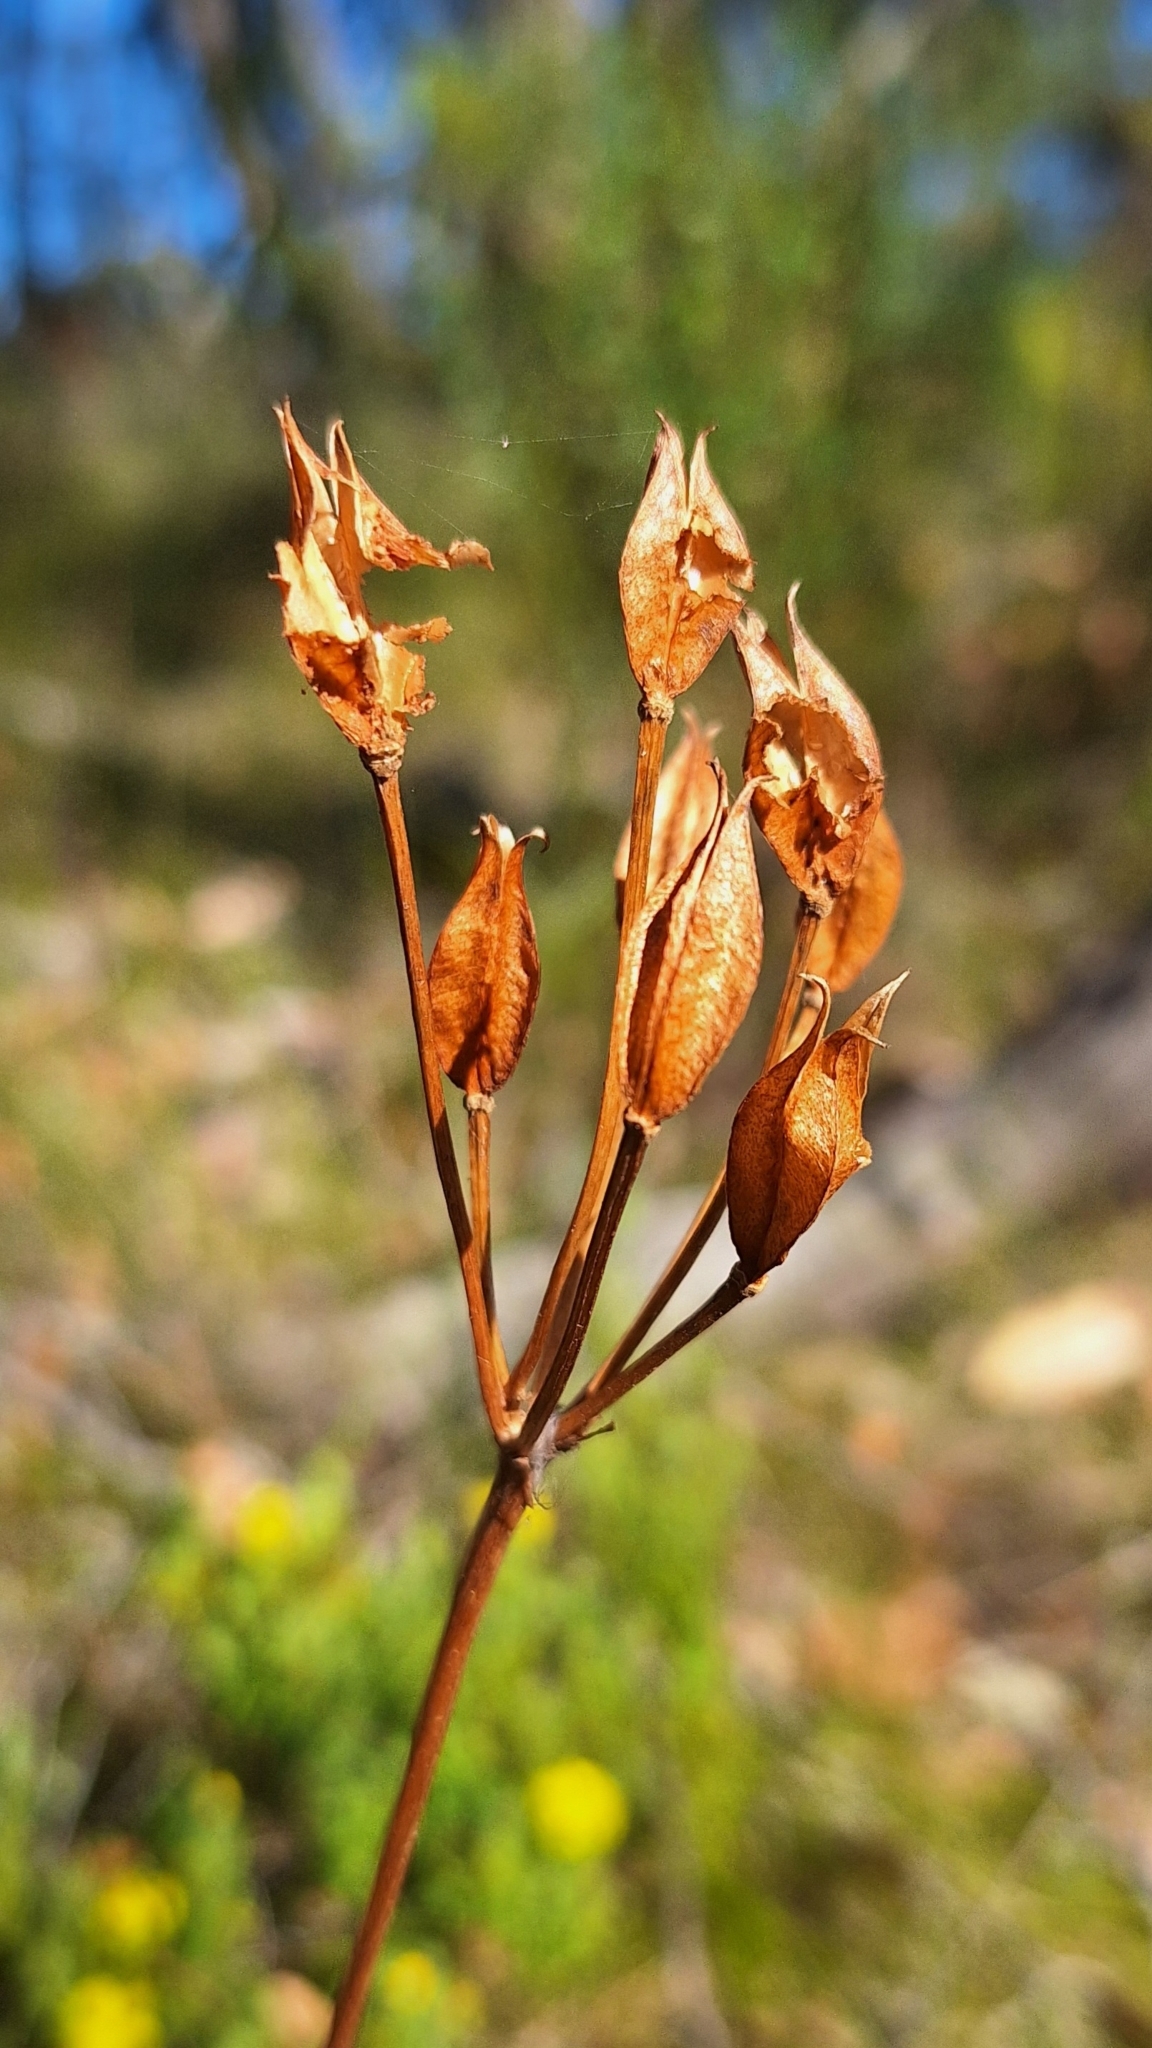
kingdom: Plantae
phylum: Tracheophyta
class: Liliopsida
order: Liliales
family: Colchicaceae
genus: Burchardia
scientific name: Burchardia umbellata
